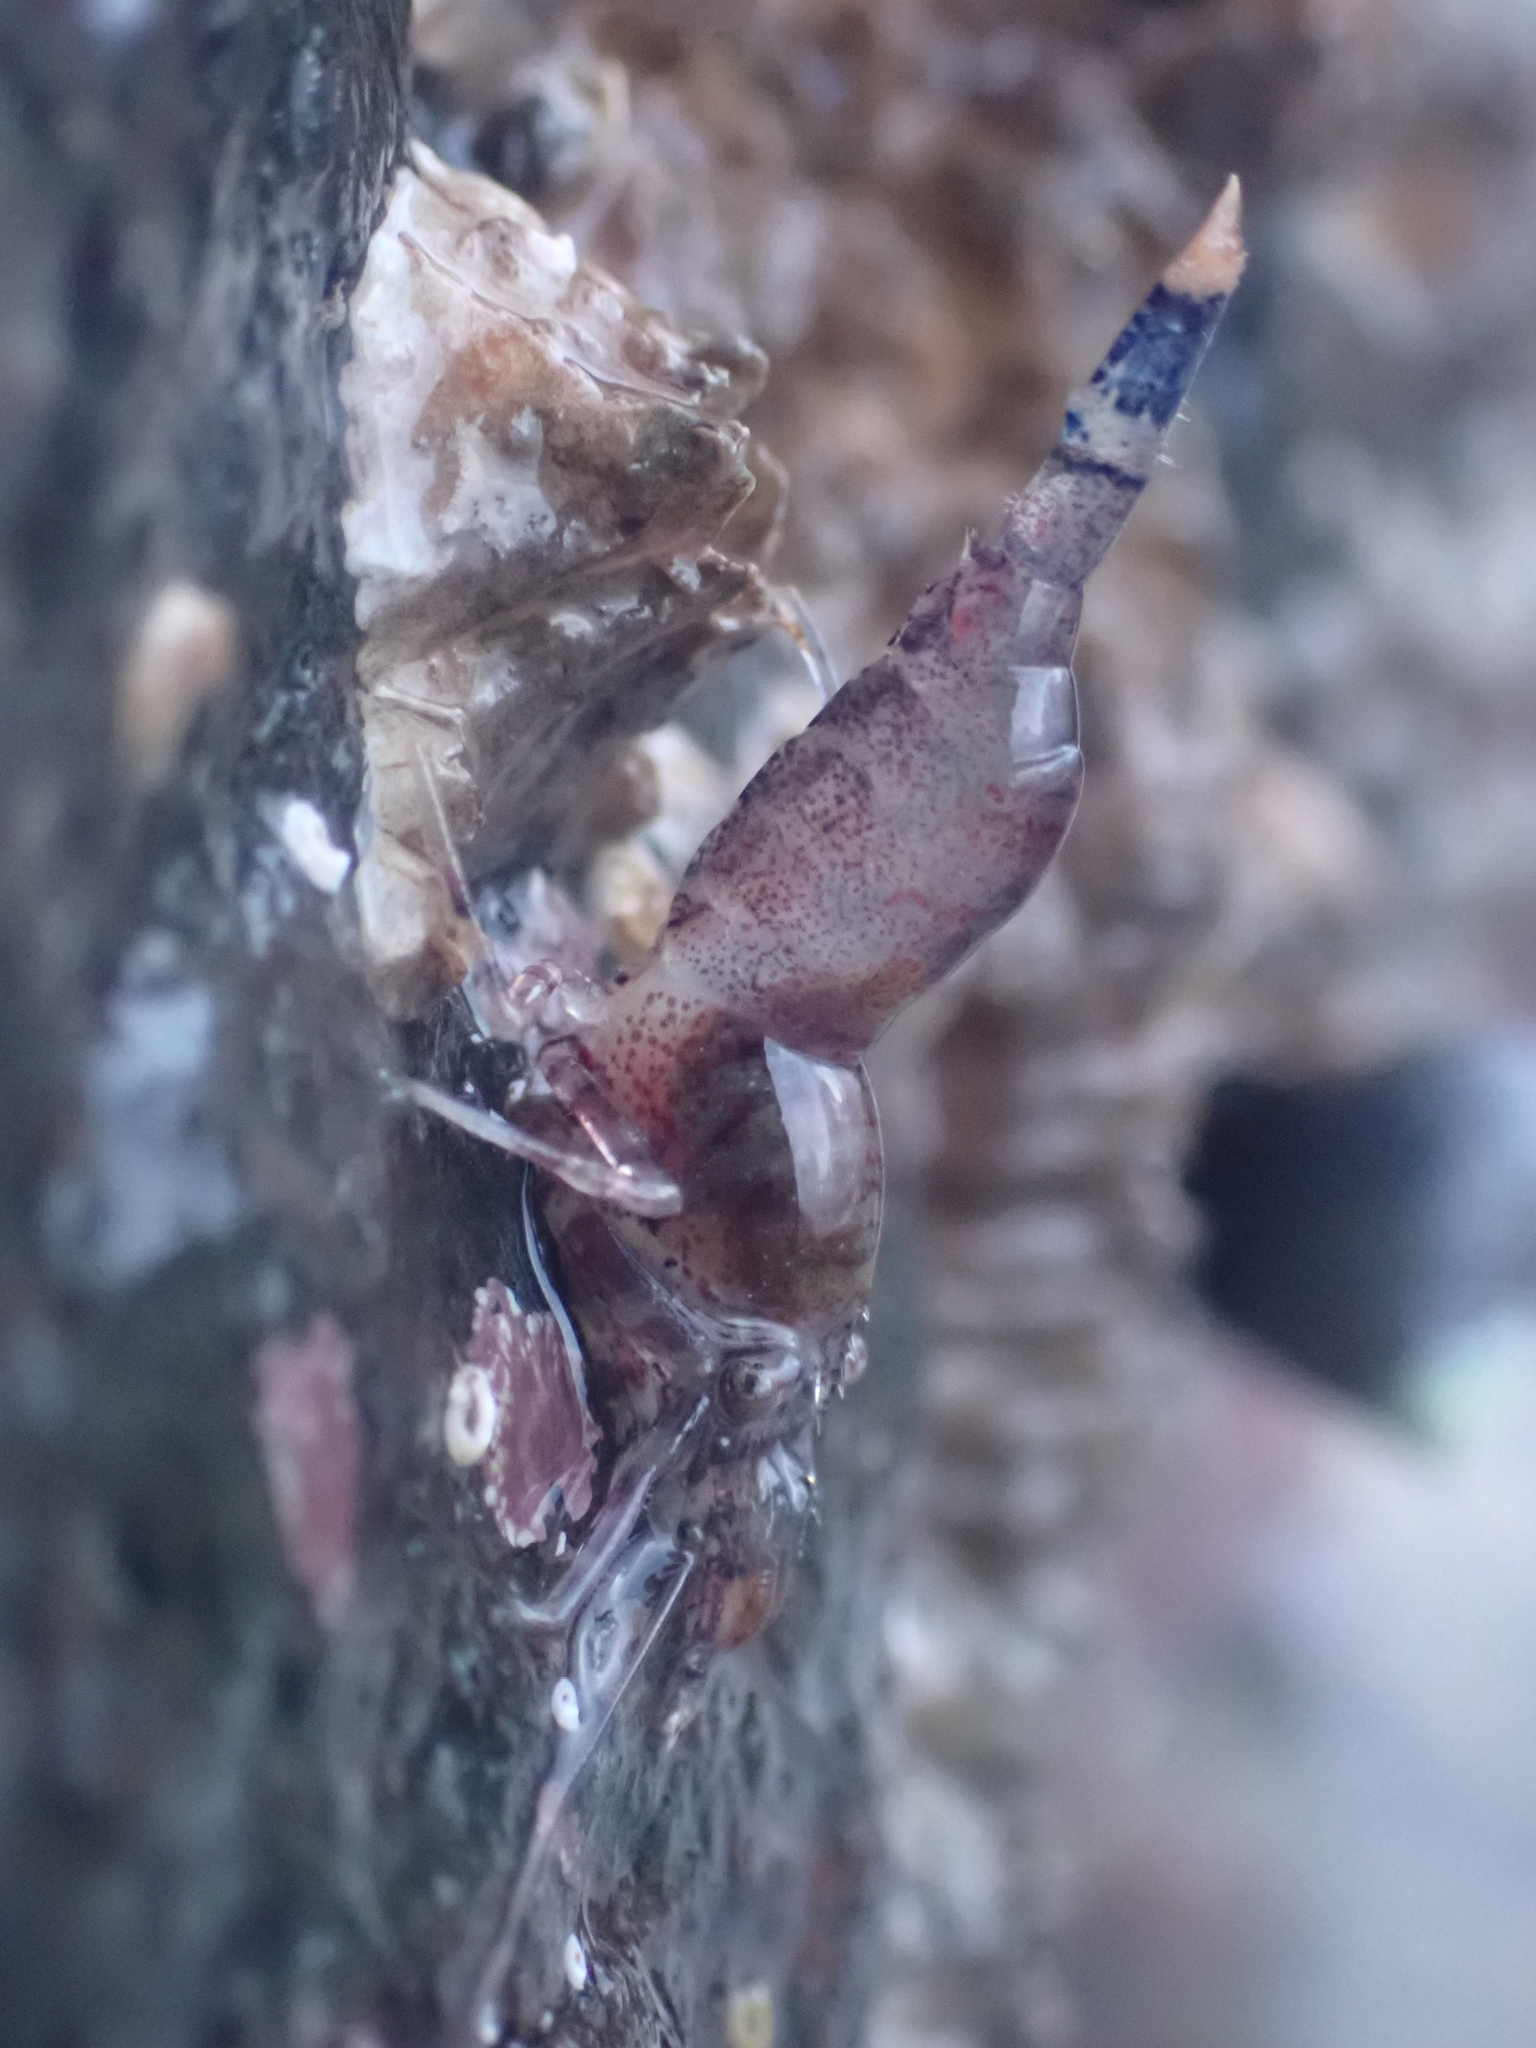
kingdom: Animalia
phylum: Arthropoda
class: Malacostraca
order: Decapoda
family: Thoridae
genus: Eualus
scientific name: Eualus pusiolus
